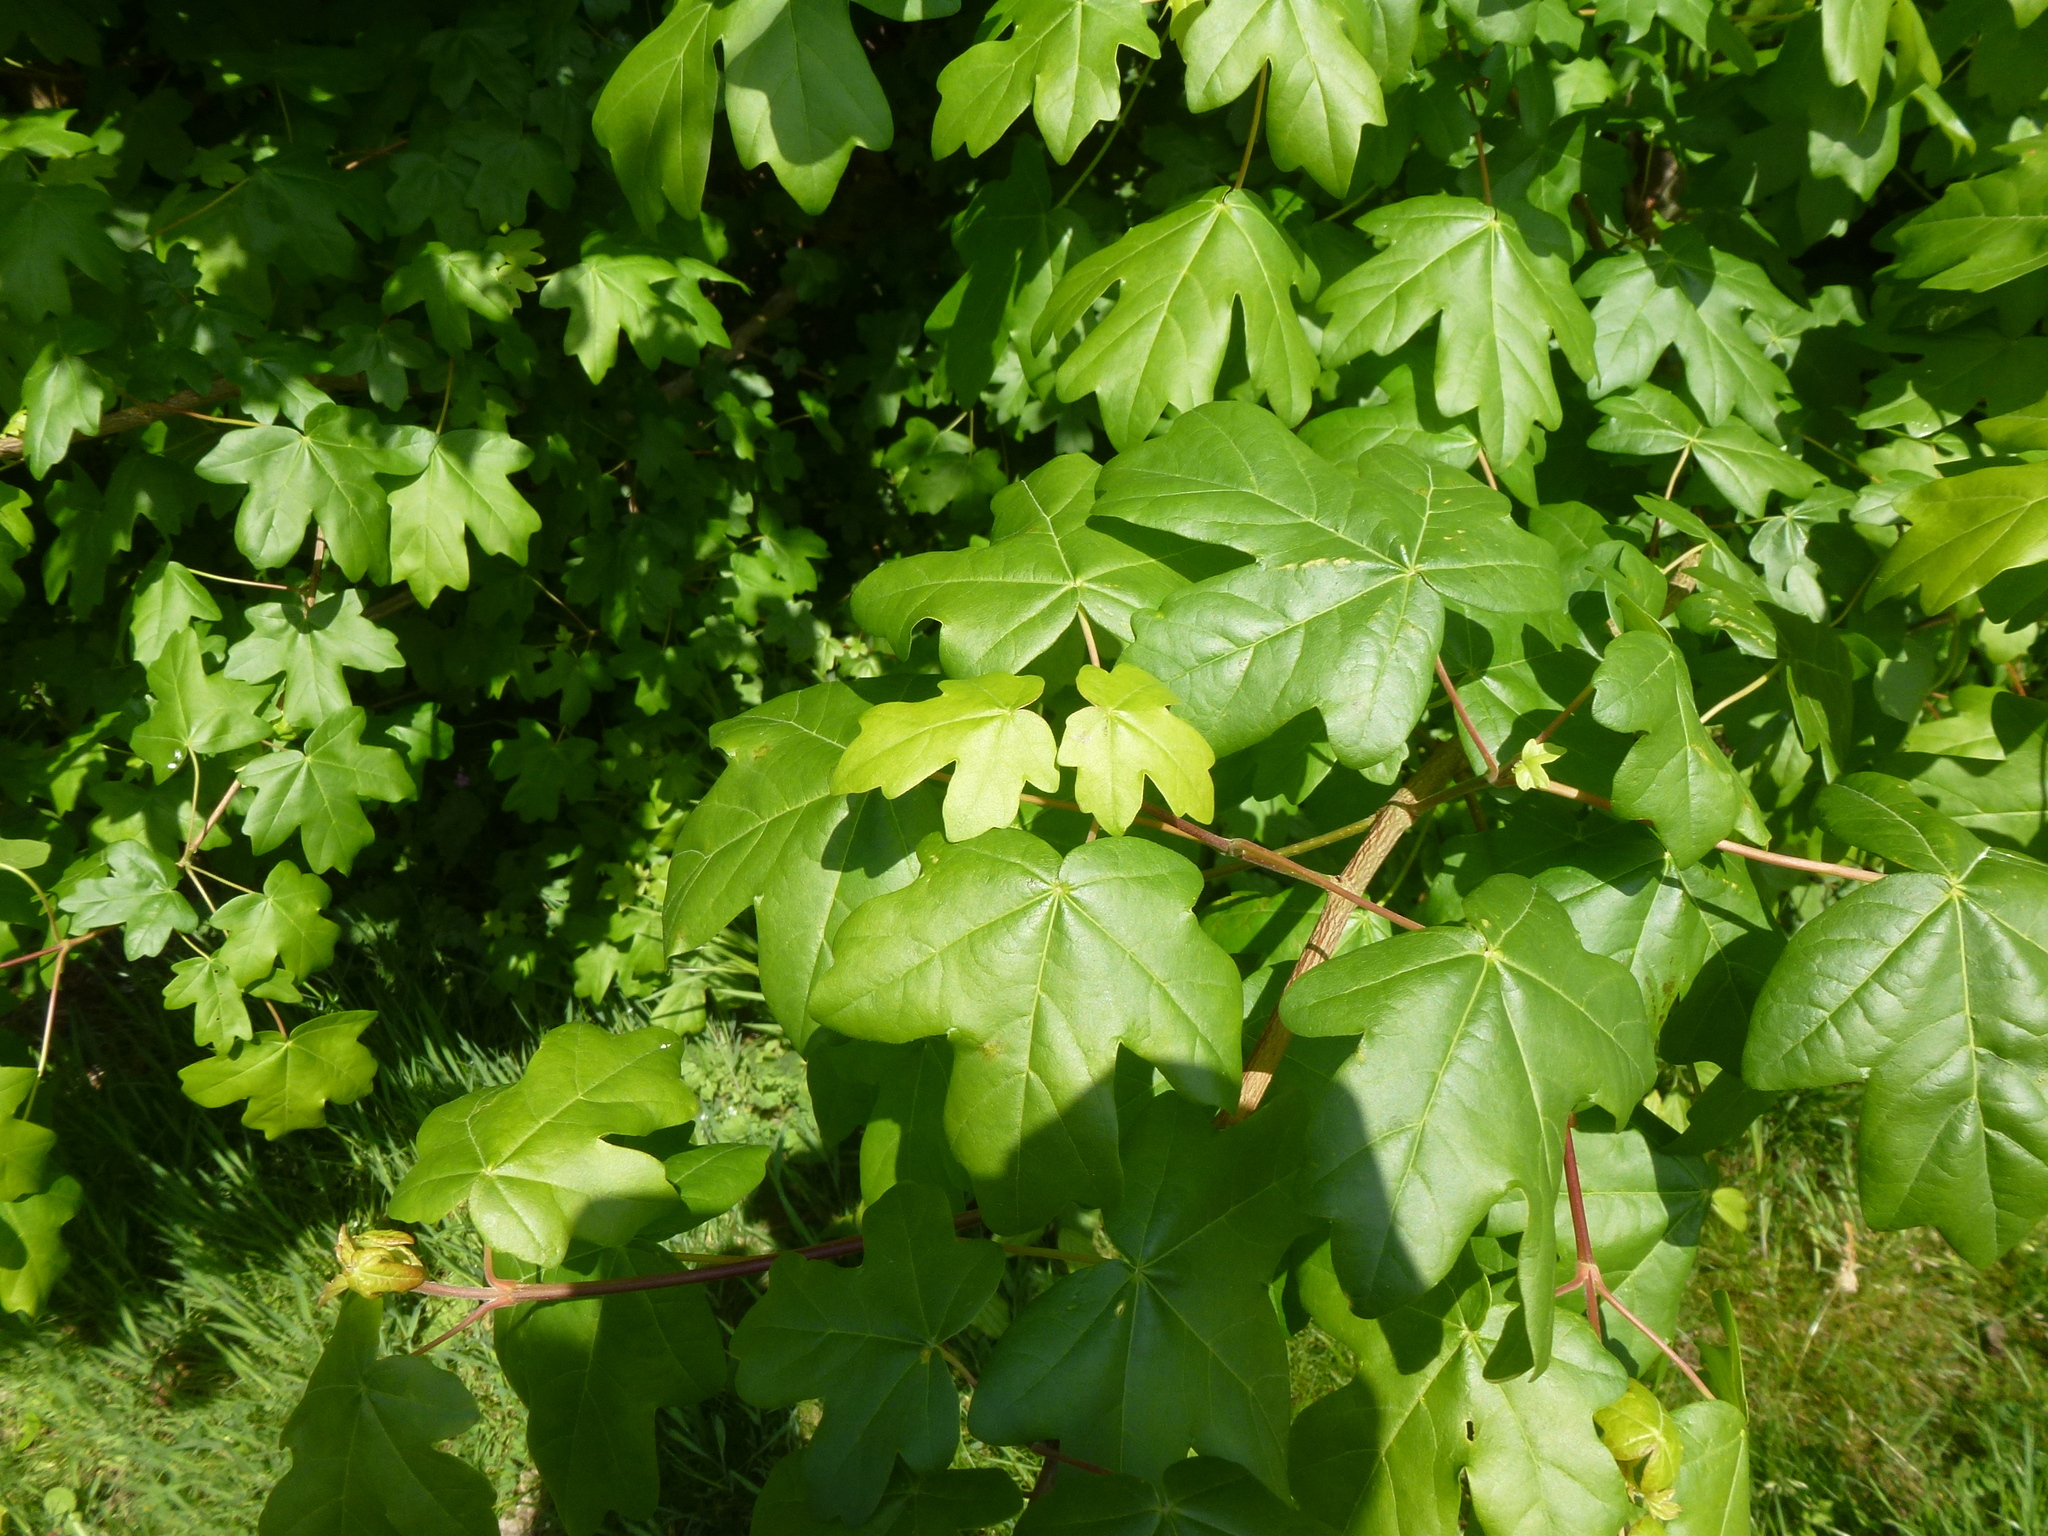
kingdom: Plantae
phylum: Tracheophyta
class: Magnoliopsida
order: Sapindales
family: Sapindaceae
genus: Acer
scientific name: Acer campestre
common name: Field maple
